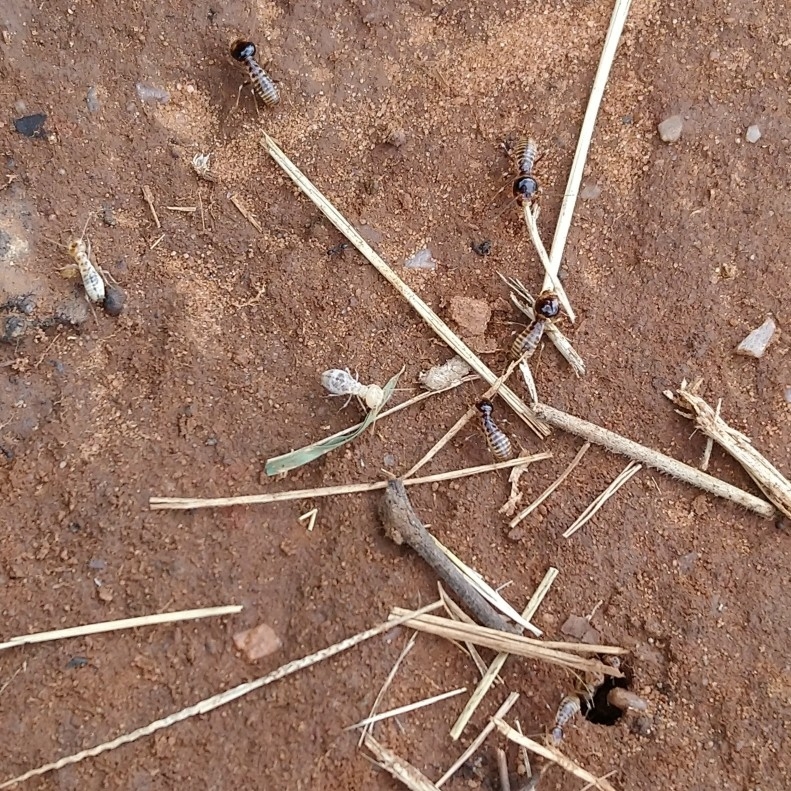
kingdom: Animalia
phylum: Arthropoda
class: Insecta
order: Blattodea
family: Hodotermitidae
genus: Hodotermes
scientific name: Hodotermes mossambicus
